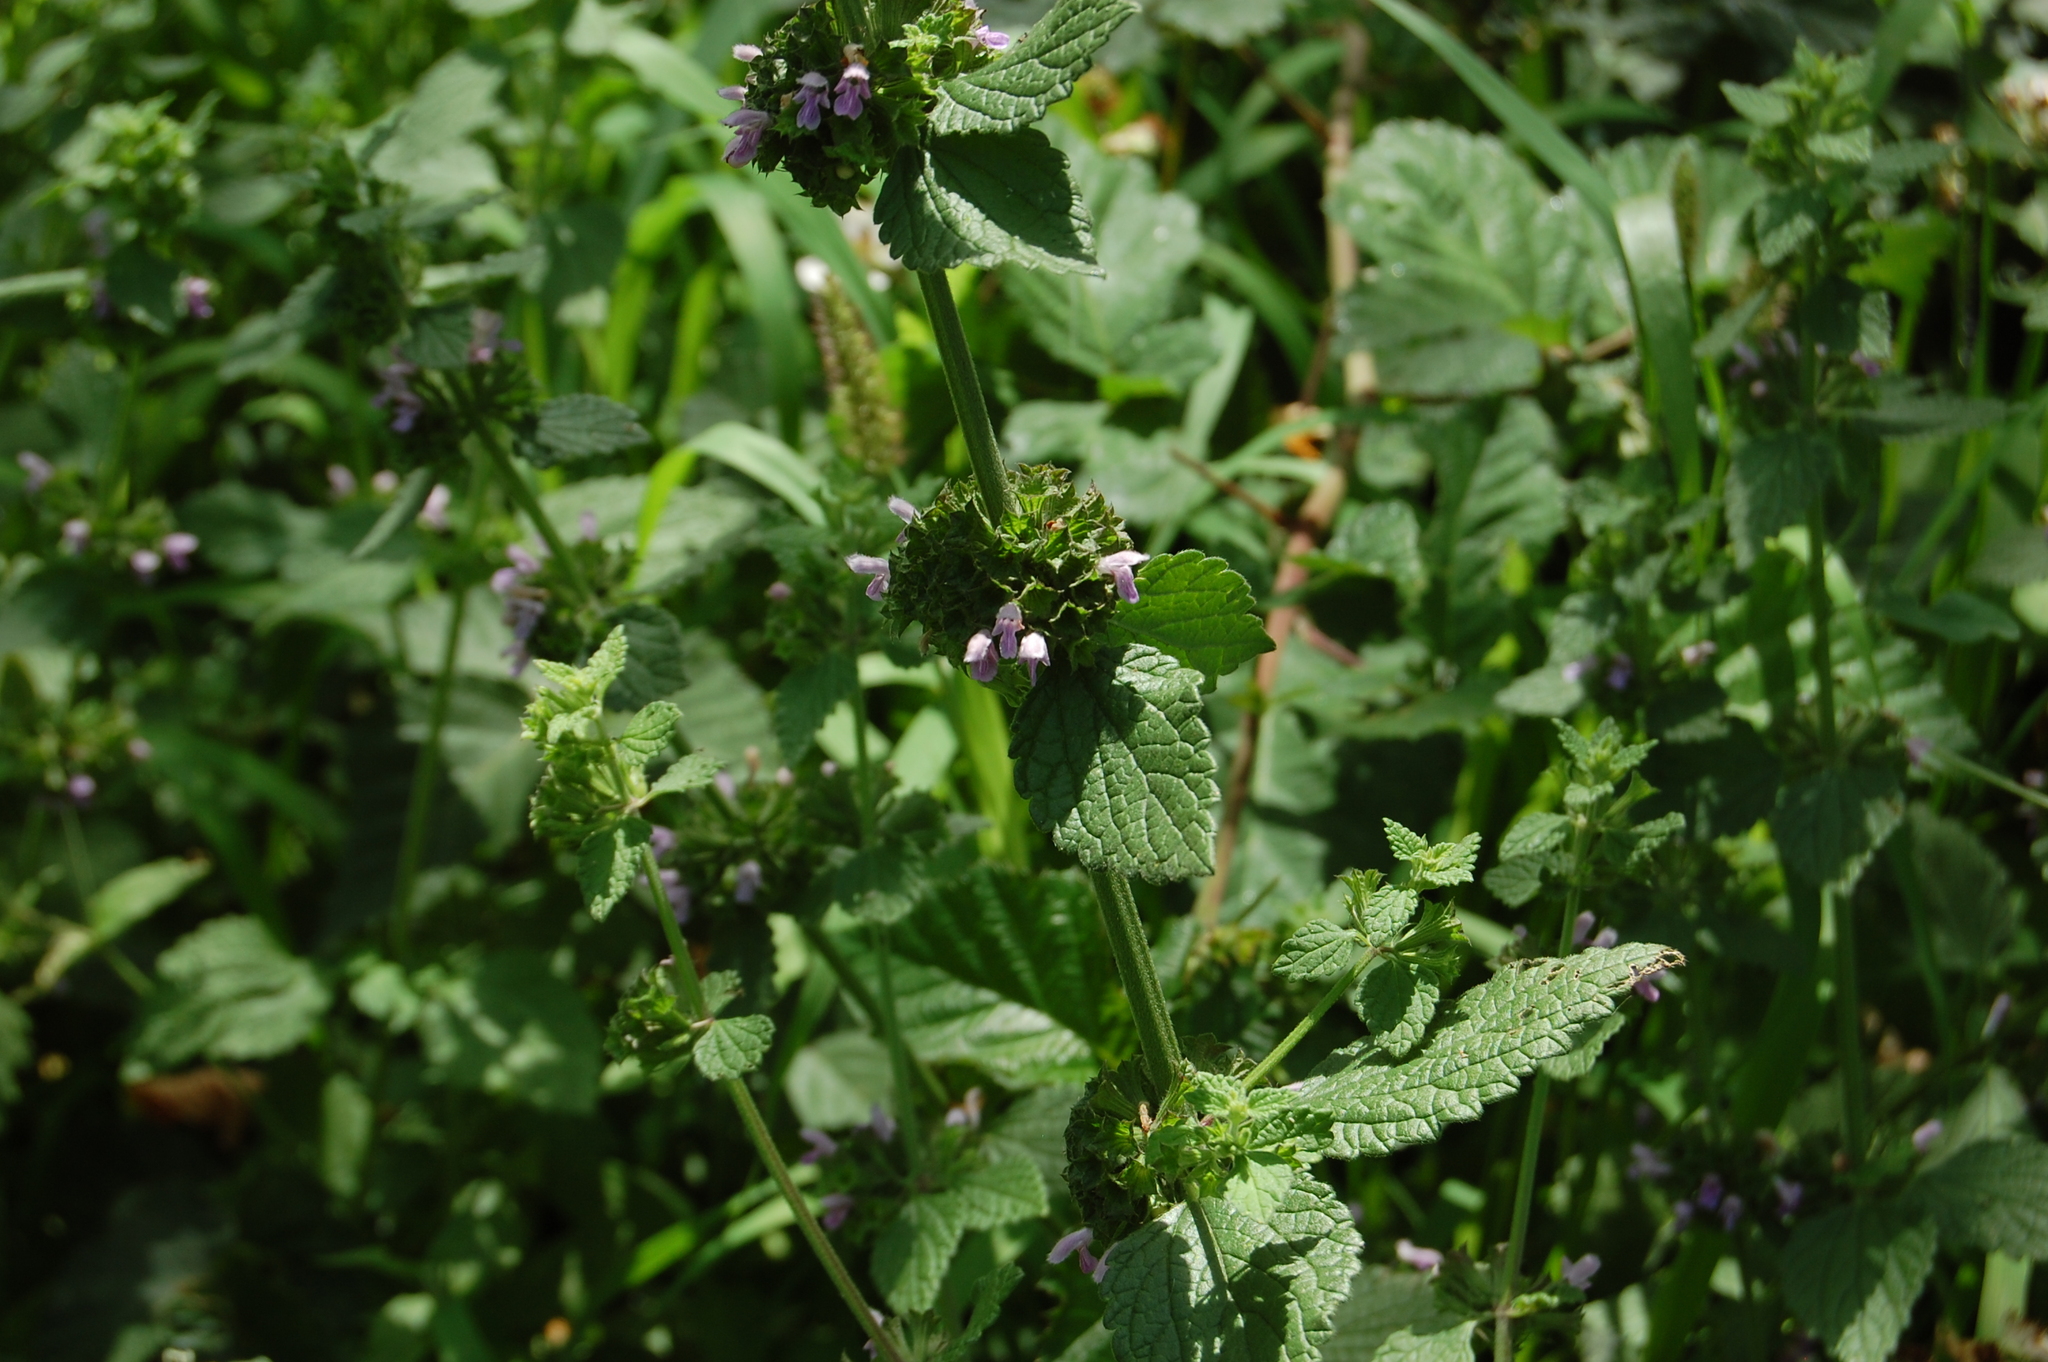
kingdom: Plantae
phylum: Tracheophyta
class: Magnoliopsida
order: Lamiales
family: Lamiaceae
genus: Ballota
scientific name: Ballota nigra
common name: Black horehound
